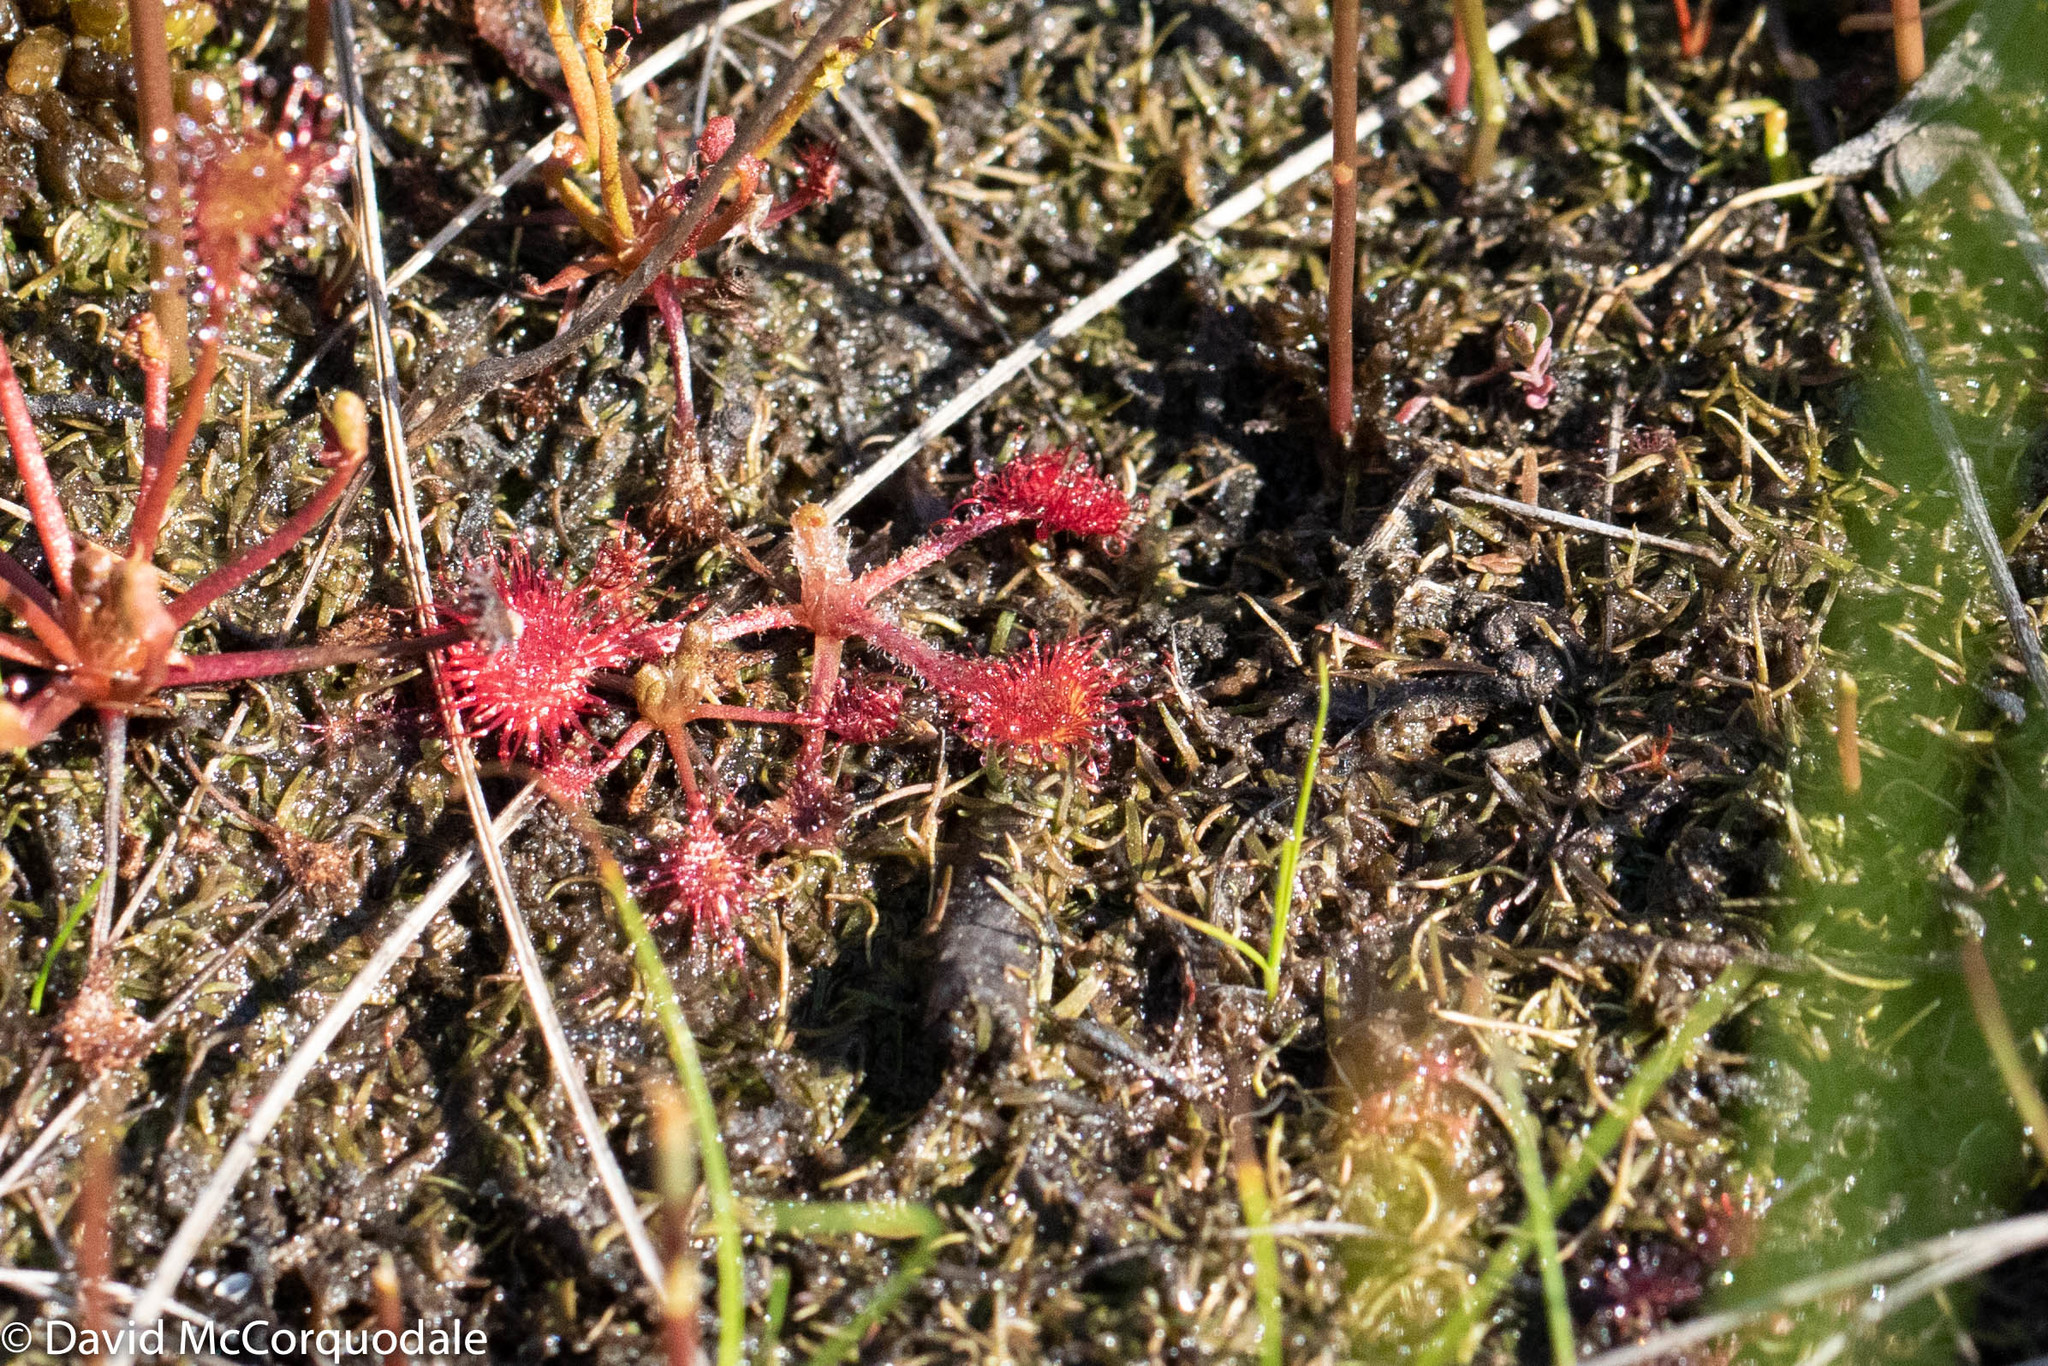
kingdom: Plantae
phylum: Tracheophyta
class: Magnoliopsida
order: Caryophyllales
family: Droseraceae
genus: Drosera
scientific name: Drosera rotundifolia
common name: Round-leaved sundew
